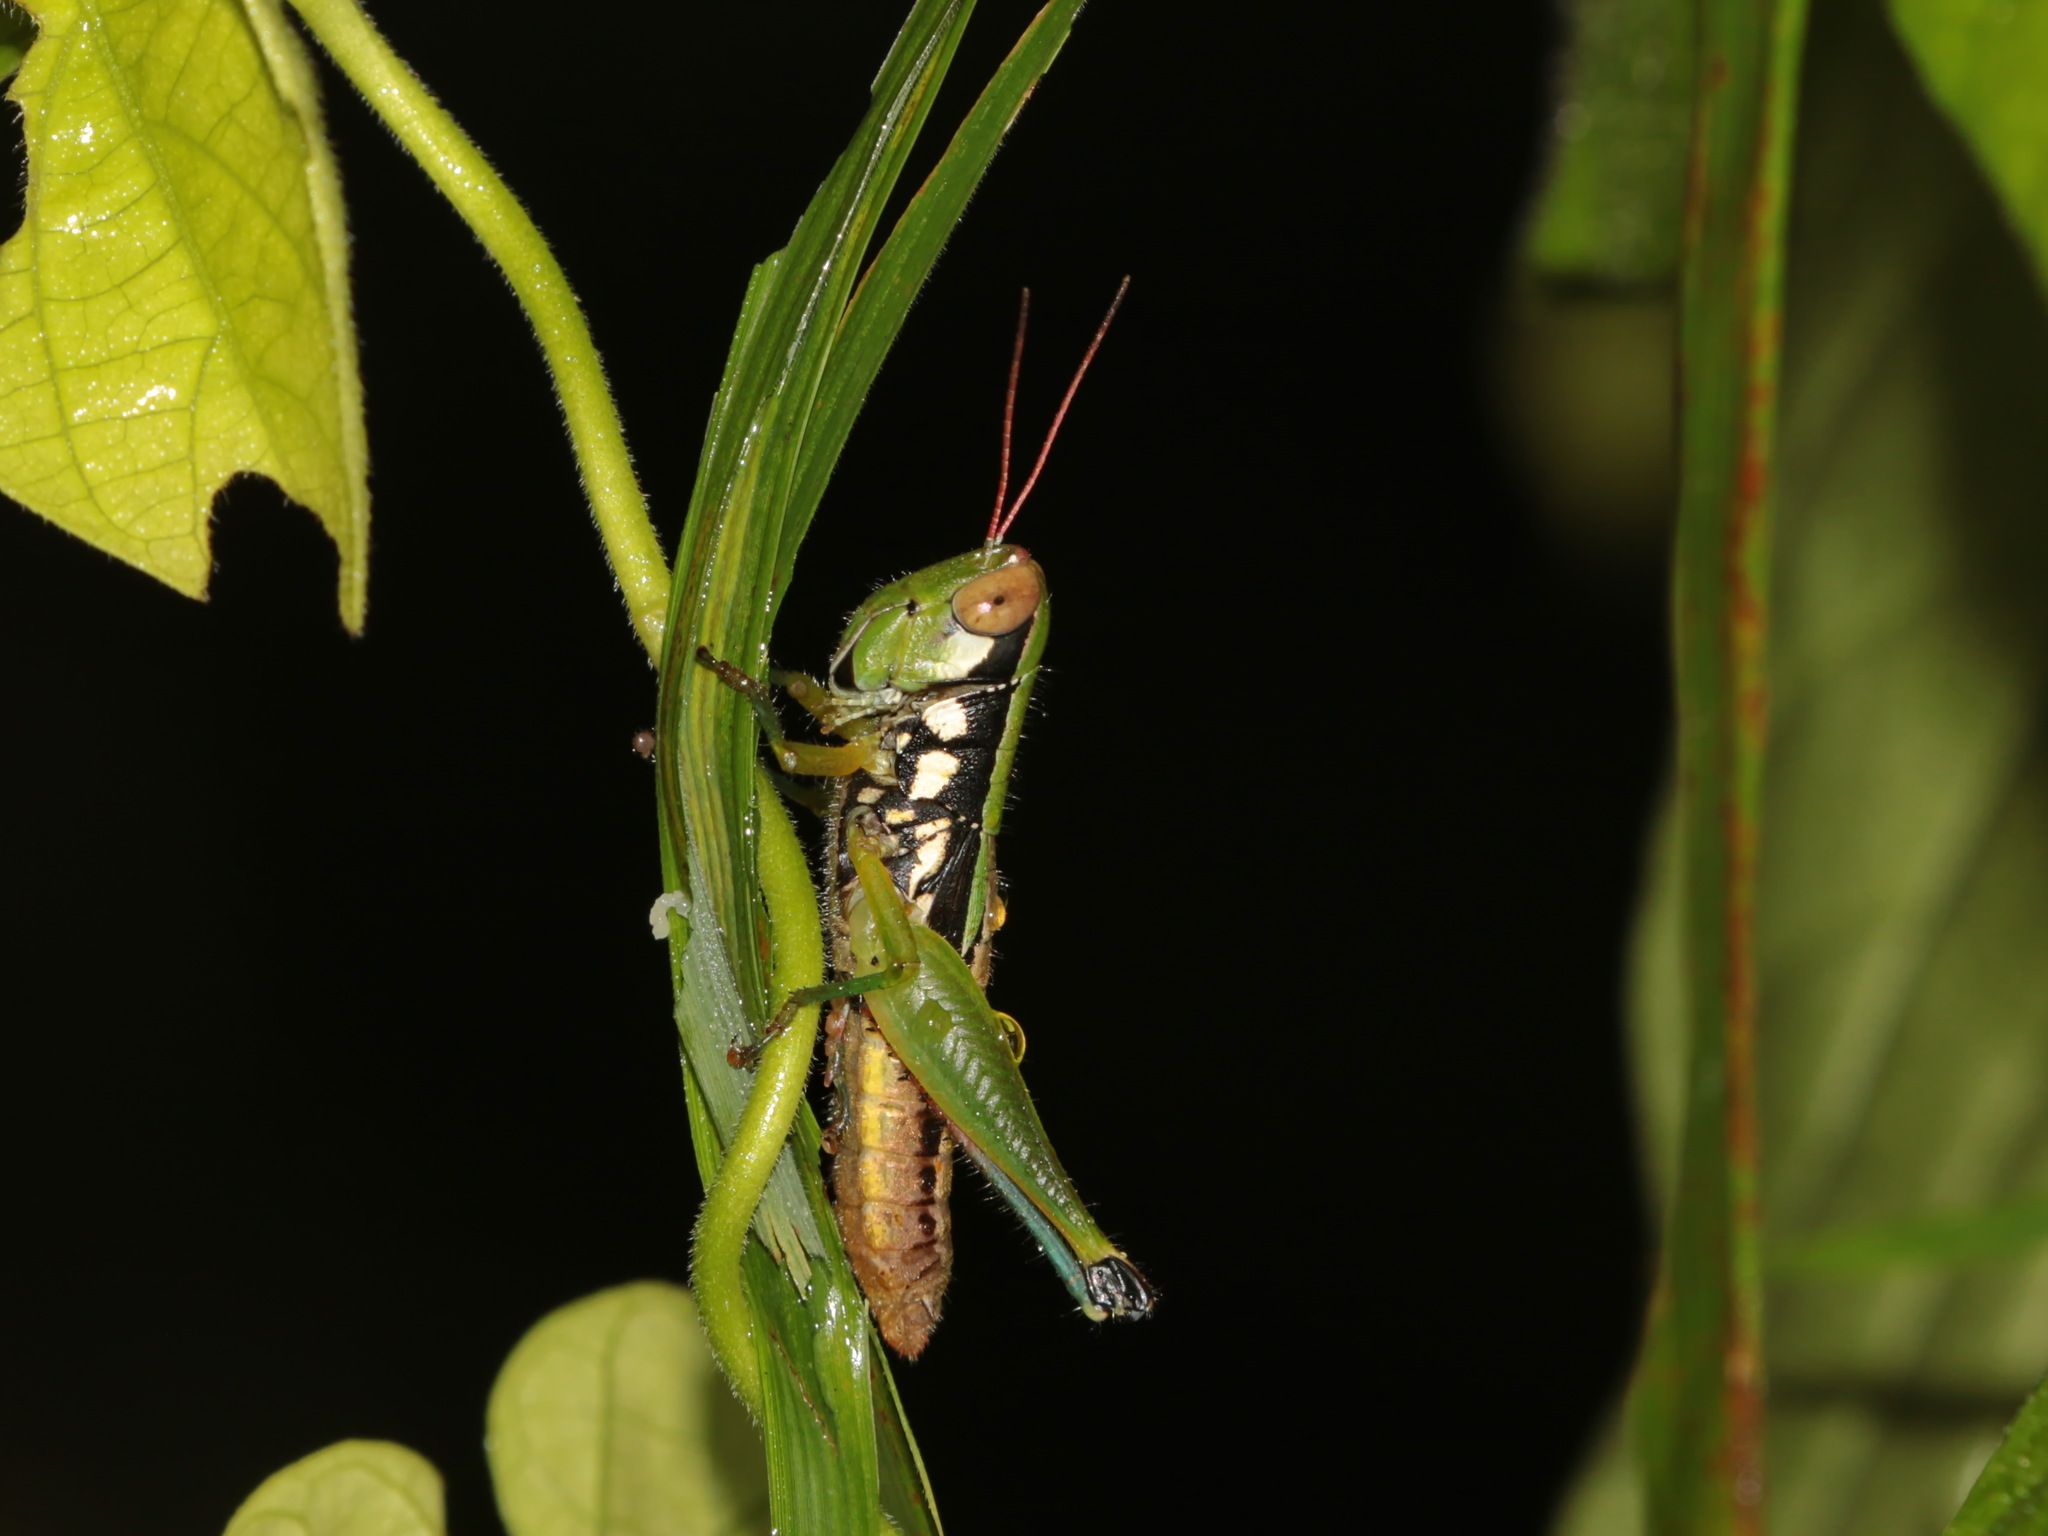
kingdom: Animalia
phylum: Arthropoda
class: Insecta
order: Orthoptera
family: Acrididae
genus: Caryanda
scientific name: Caryanda beybienkoi
